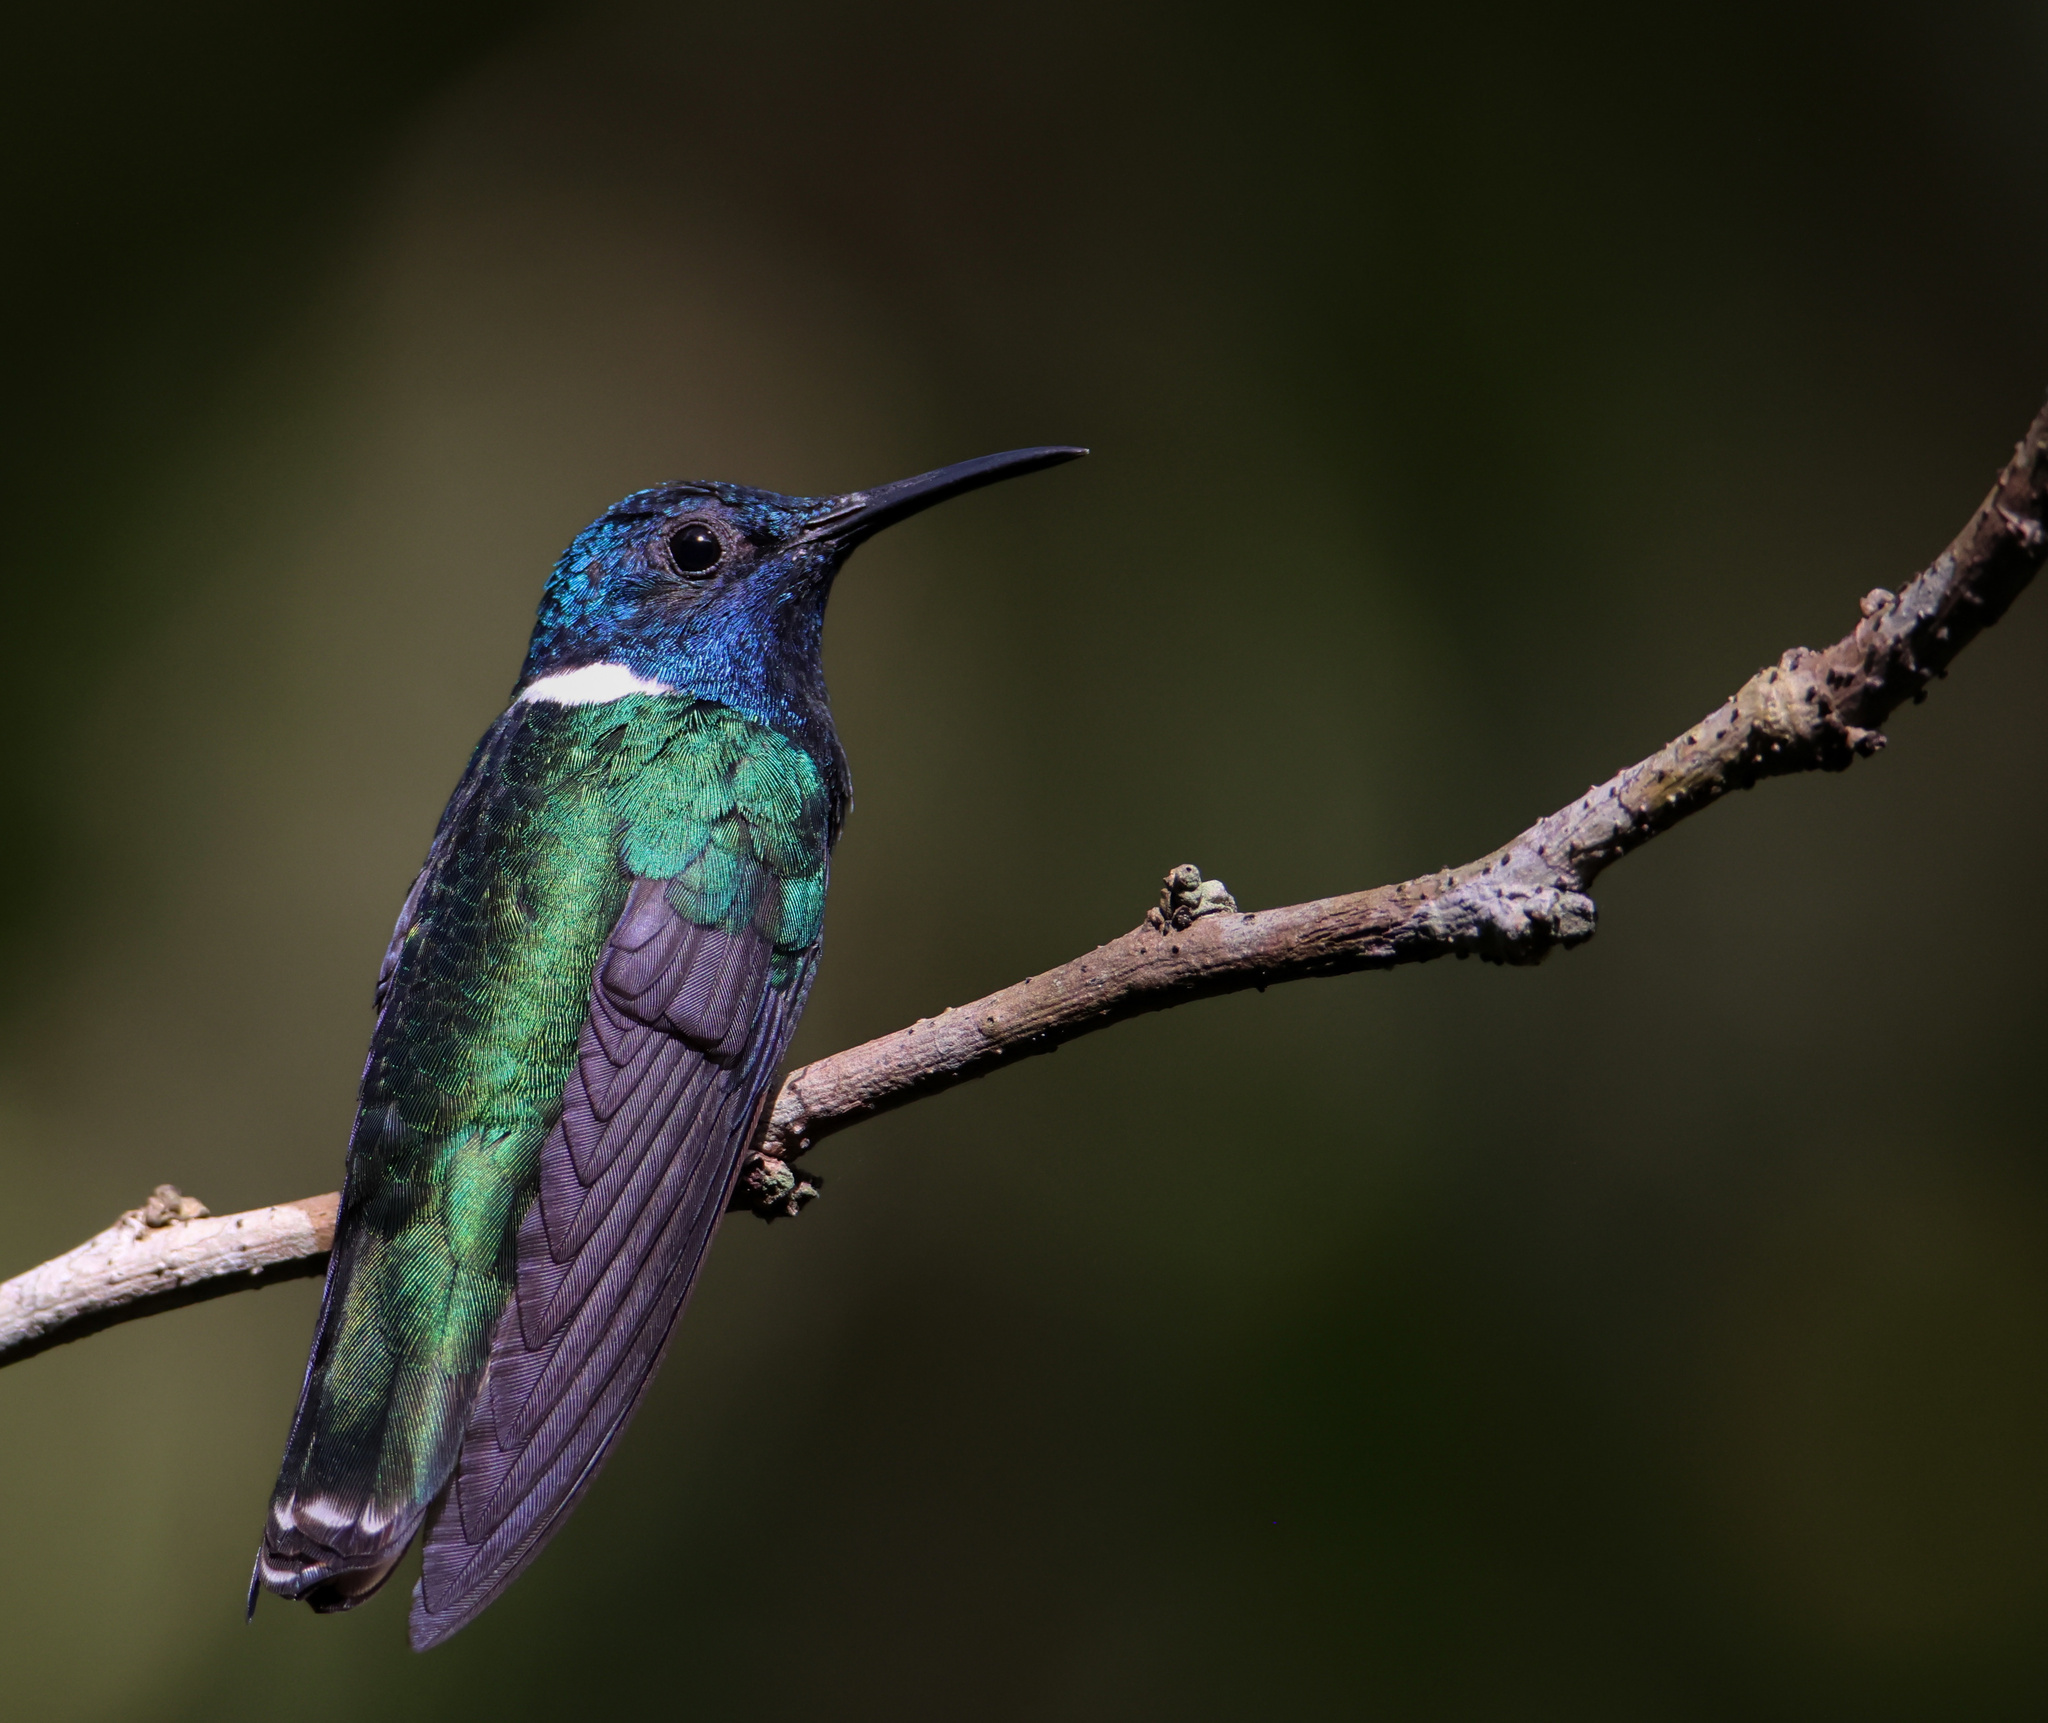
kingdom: Animalia
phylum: Chordata
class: Aves
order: Apodiformes
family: Trochilidae
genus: Florisuga
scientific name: Florisuga mellivora
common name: White-necked jacobin
